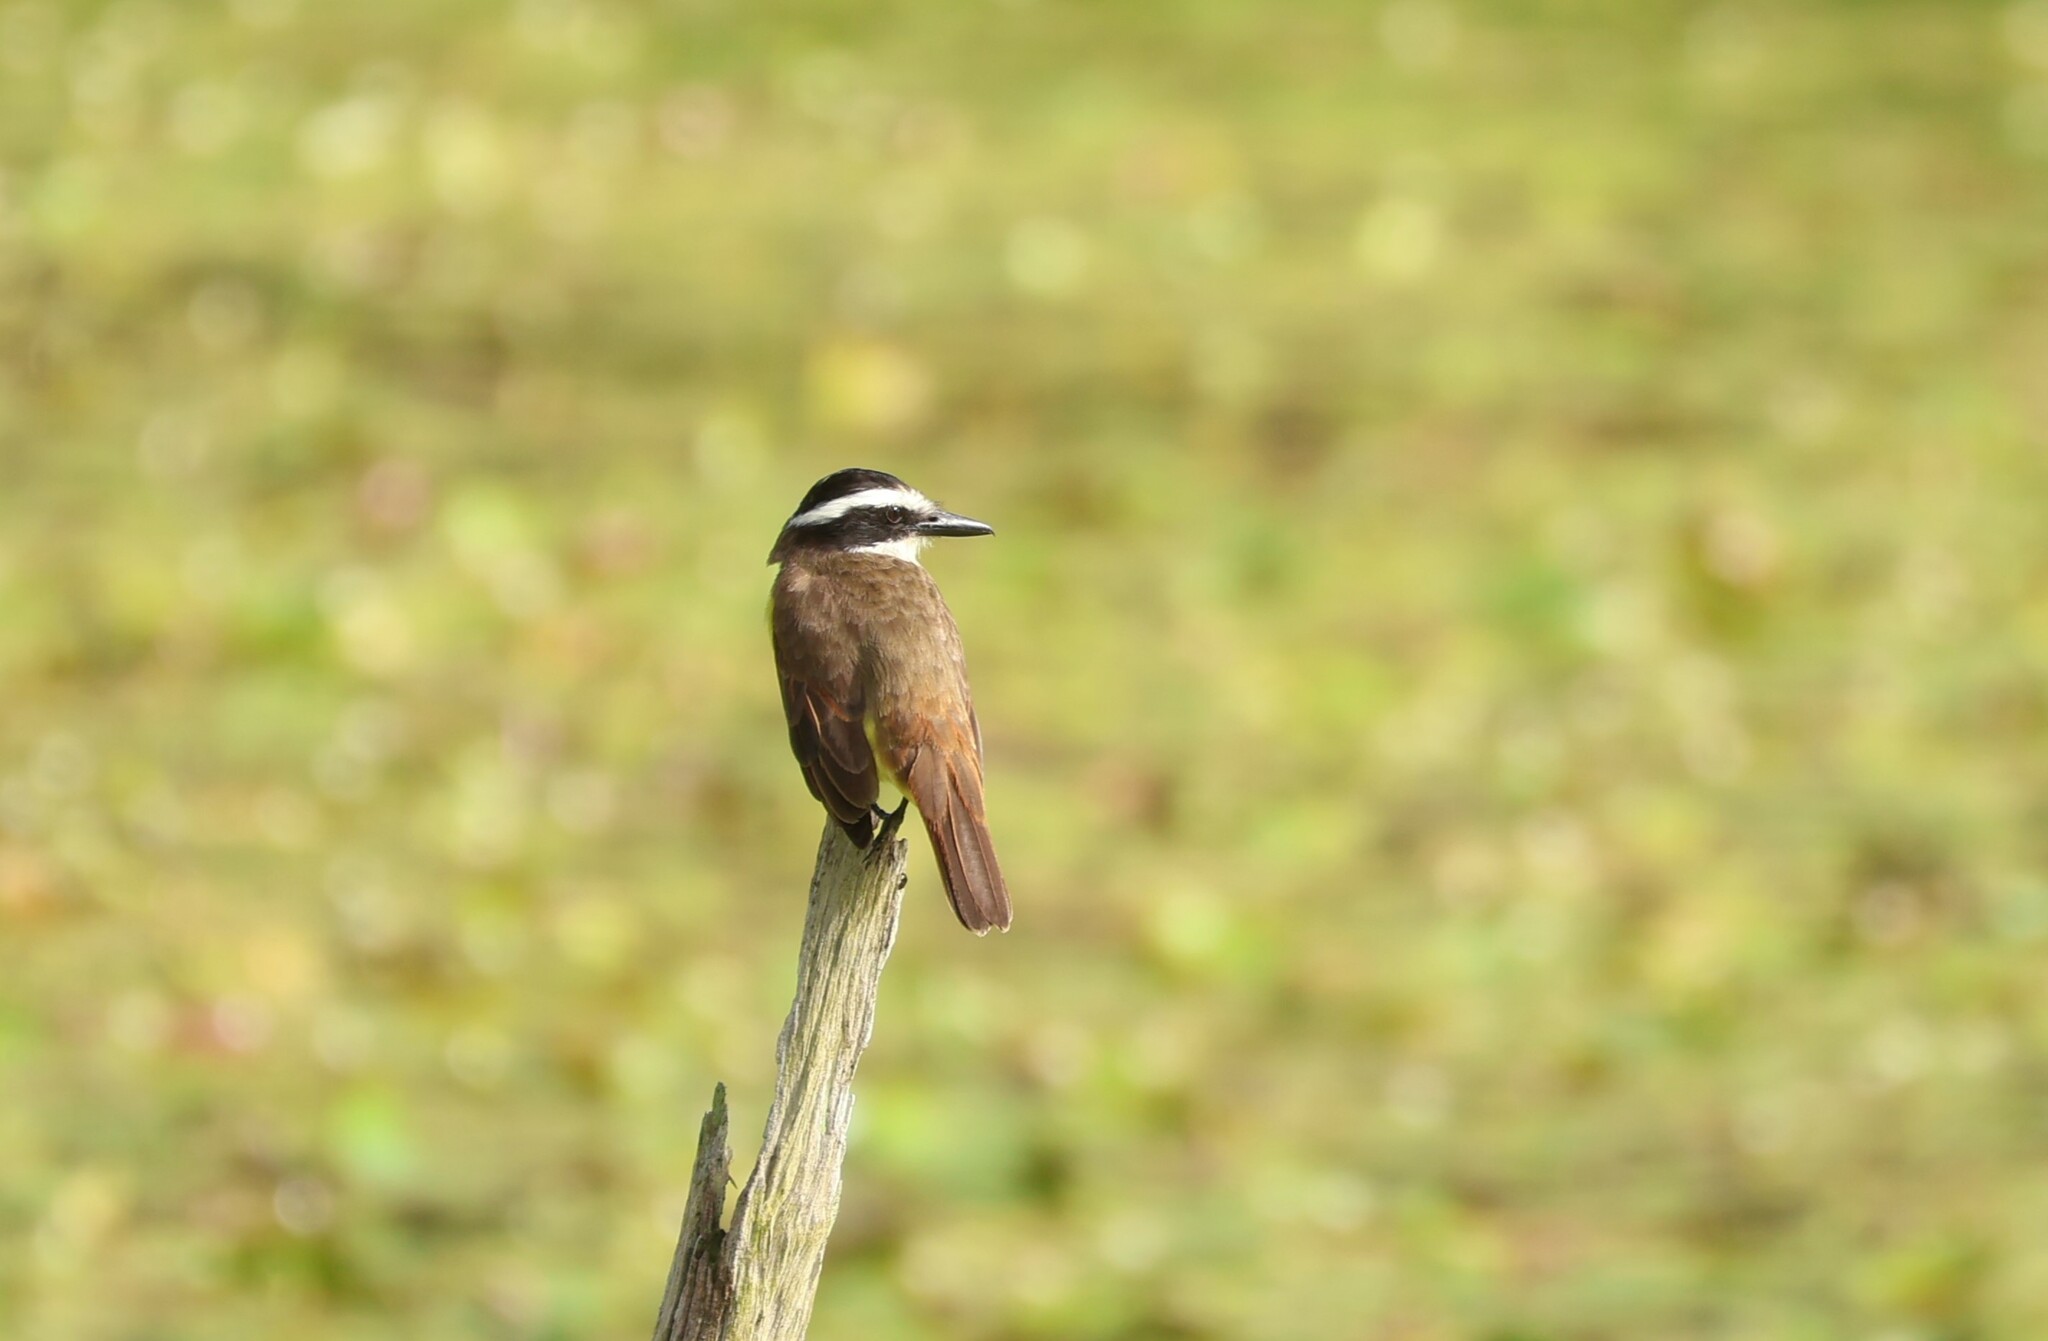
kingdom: Animalia
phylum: Chordata
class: Aves
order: Passeriformes
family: Tyrannidae
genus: Pitangus
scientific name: Pitangus sulphuratus
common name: Great kiskadee
